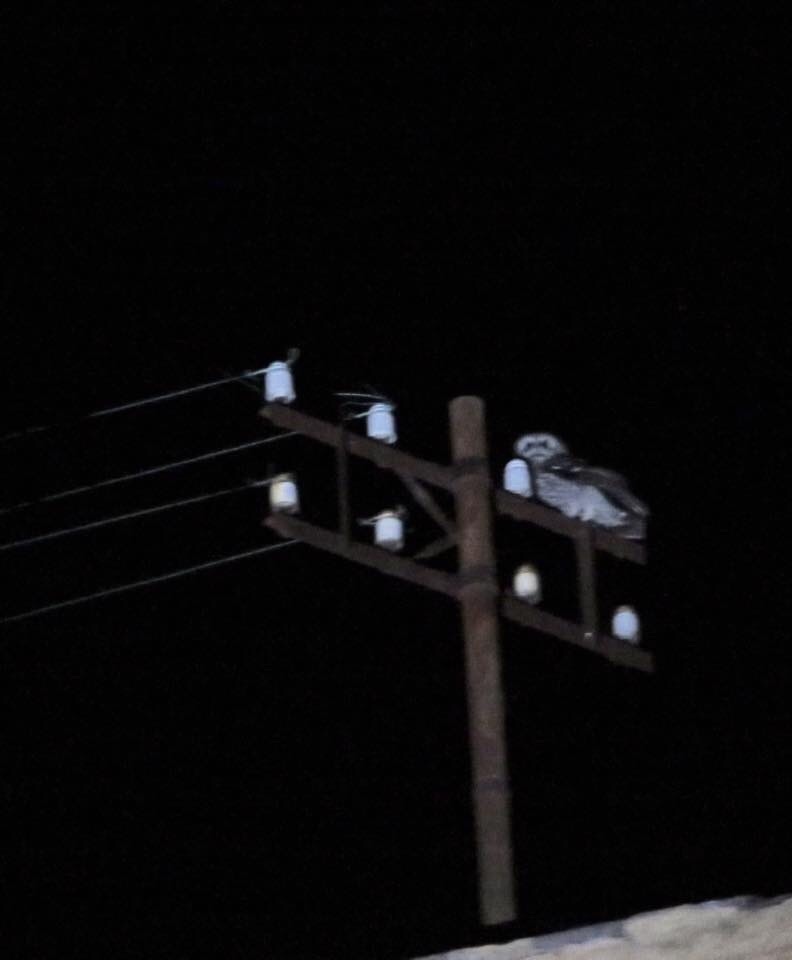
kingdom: Animalia
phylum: Chordata
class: Aves
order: Strigiformes
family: Strigidae
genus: Strix
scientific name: Strix aluco
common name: Tawny owl
